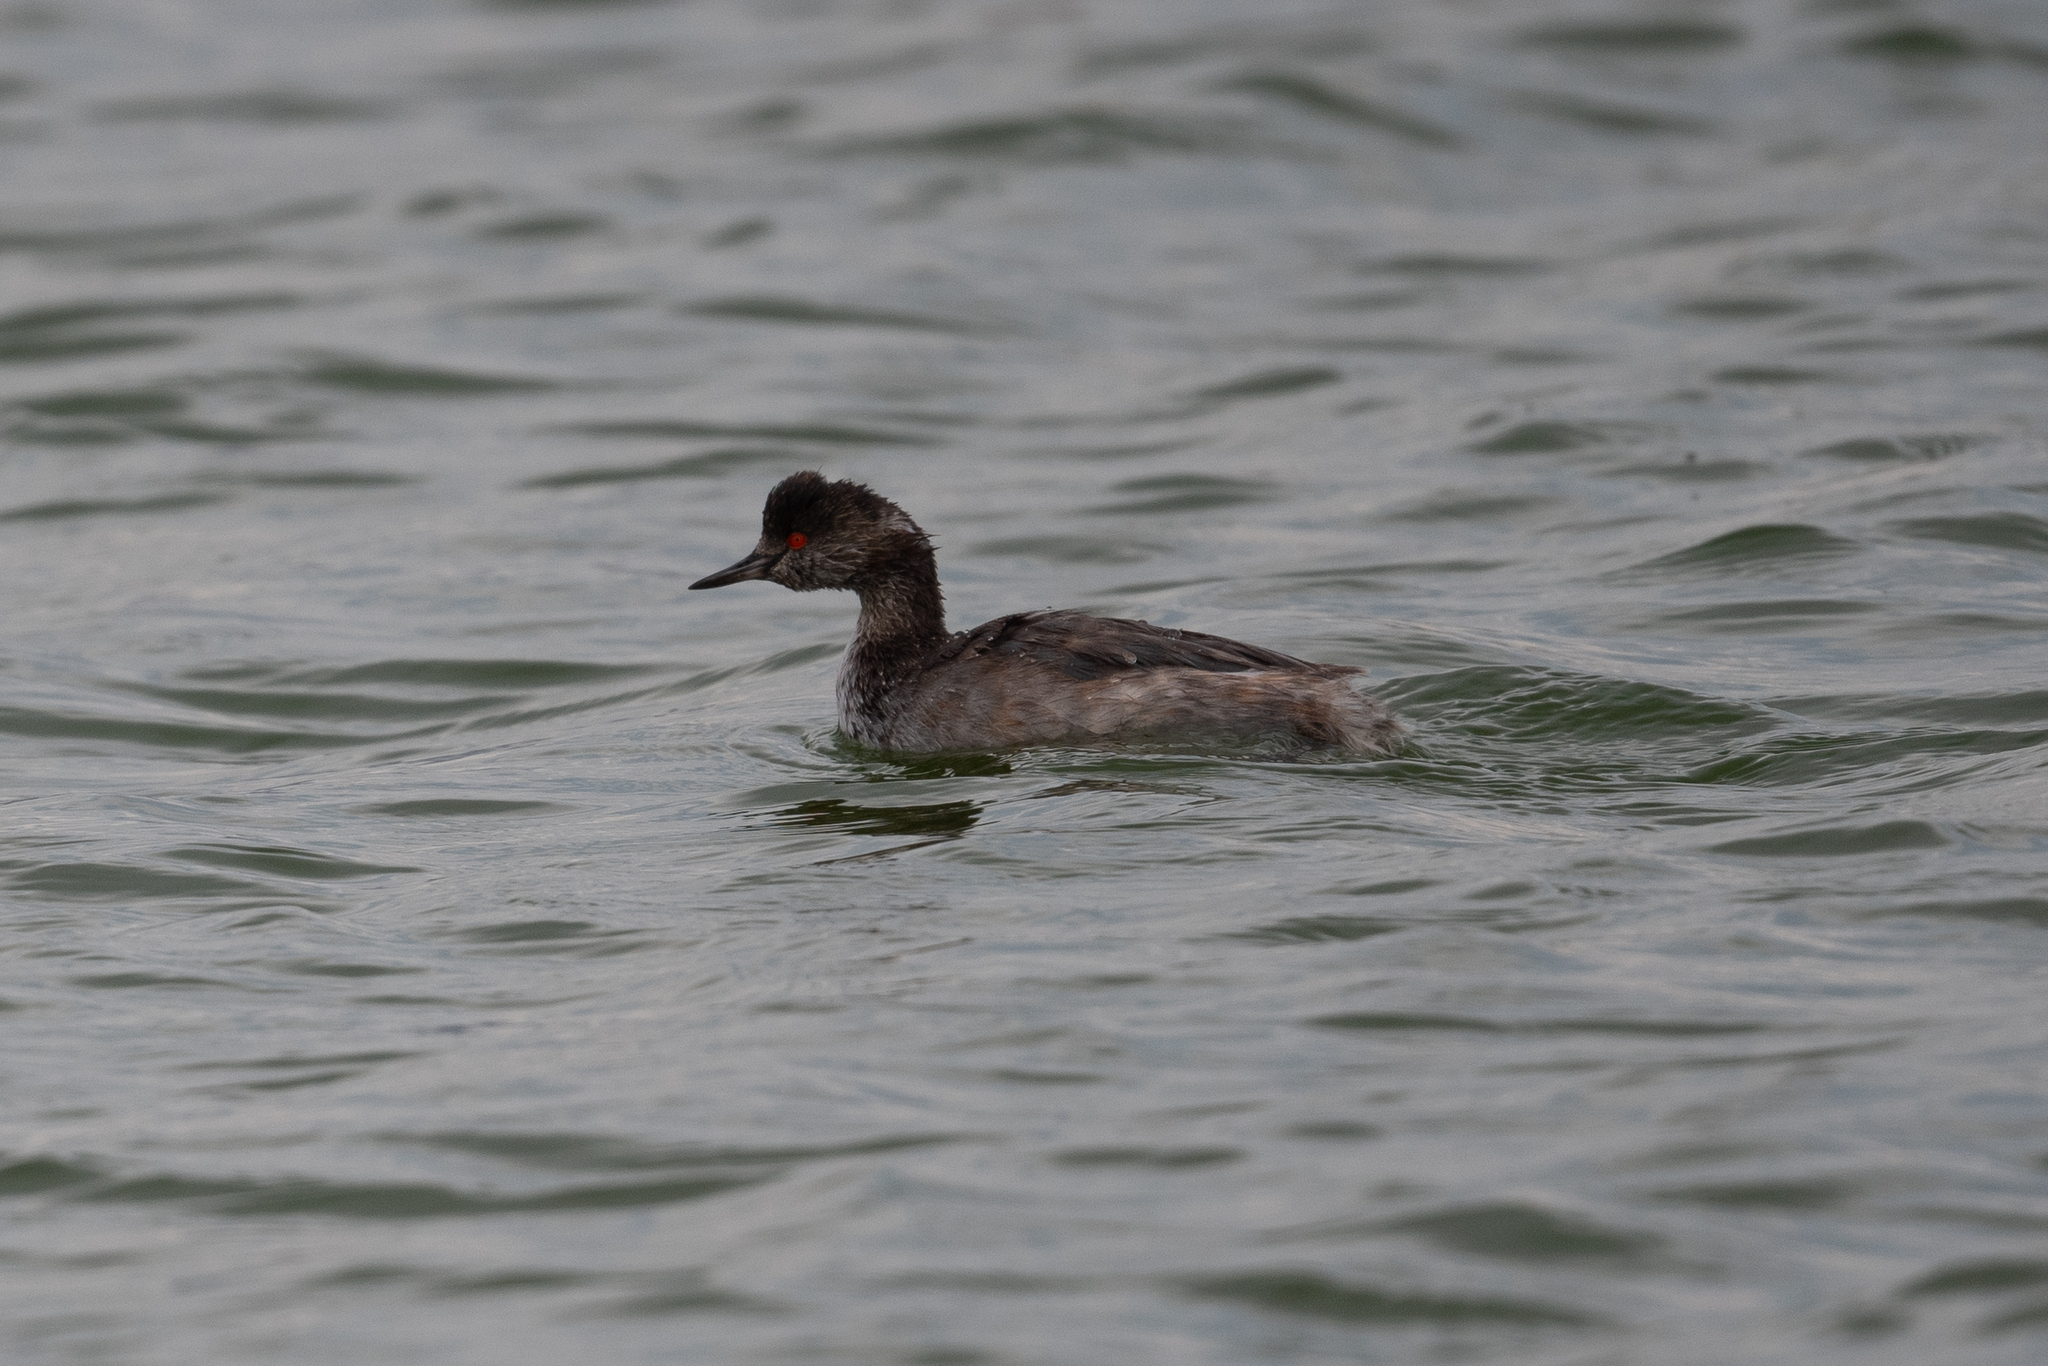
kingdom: Animalia
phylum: Chordata
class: Aves
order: Podicipediformes
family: Podicipedidae
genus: Podiceps
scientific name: Podiceps nigricollis
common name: Black-necked grebe
